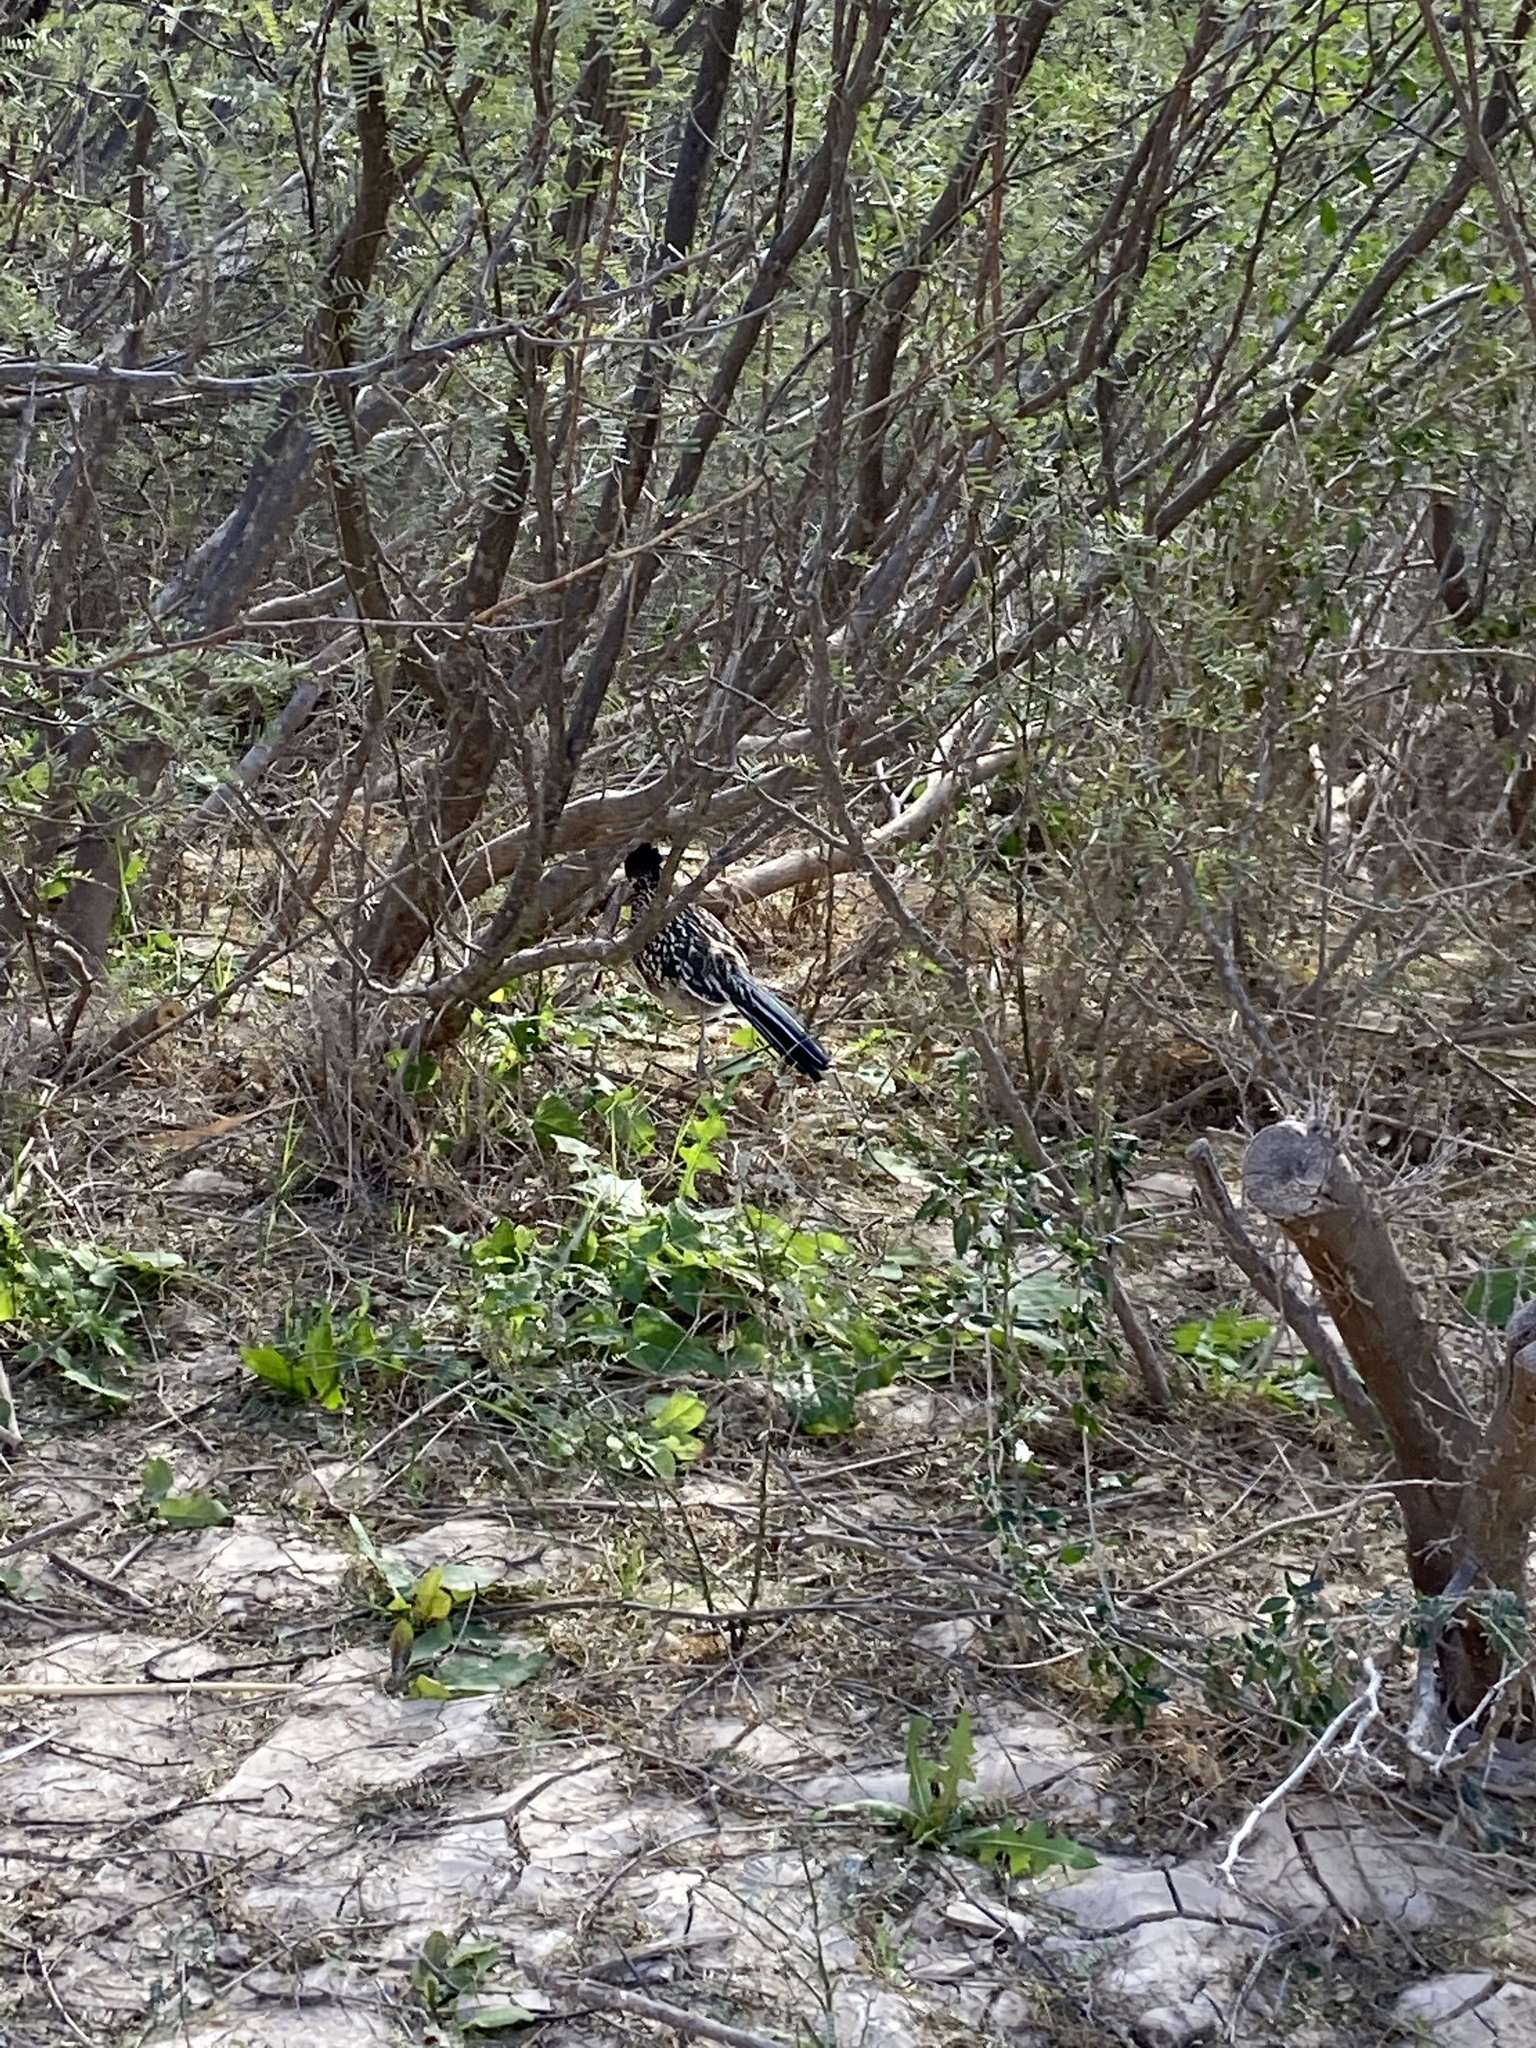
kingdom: Animalia
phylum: Chordata
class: Aves
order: Cuculiformes
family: Cuculidae
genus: Geococcyx
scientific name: Geococcyx californianus
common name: Greater roadrunner
